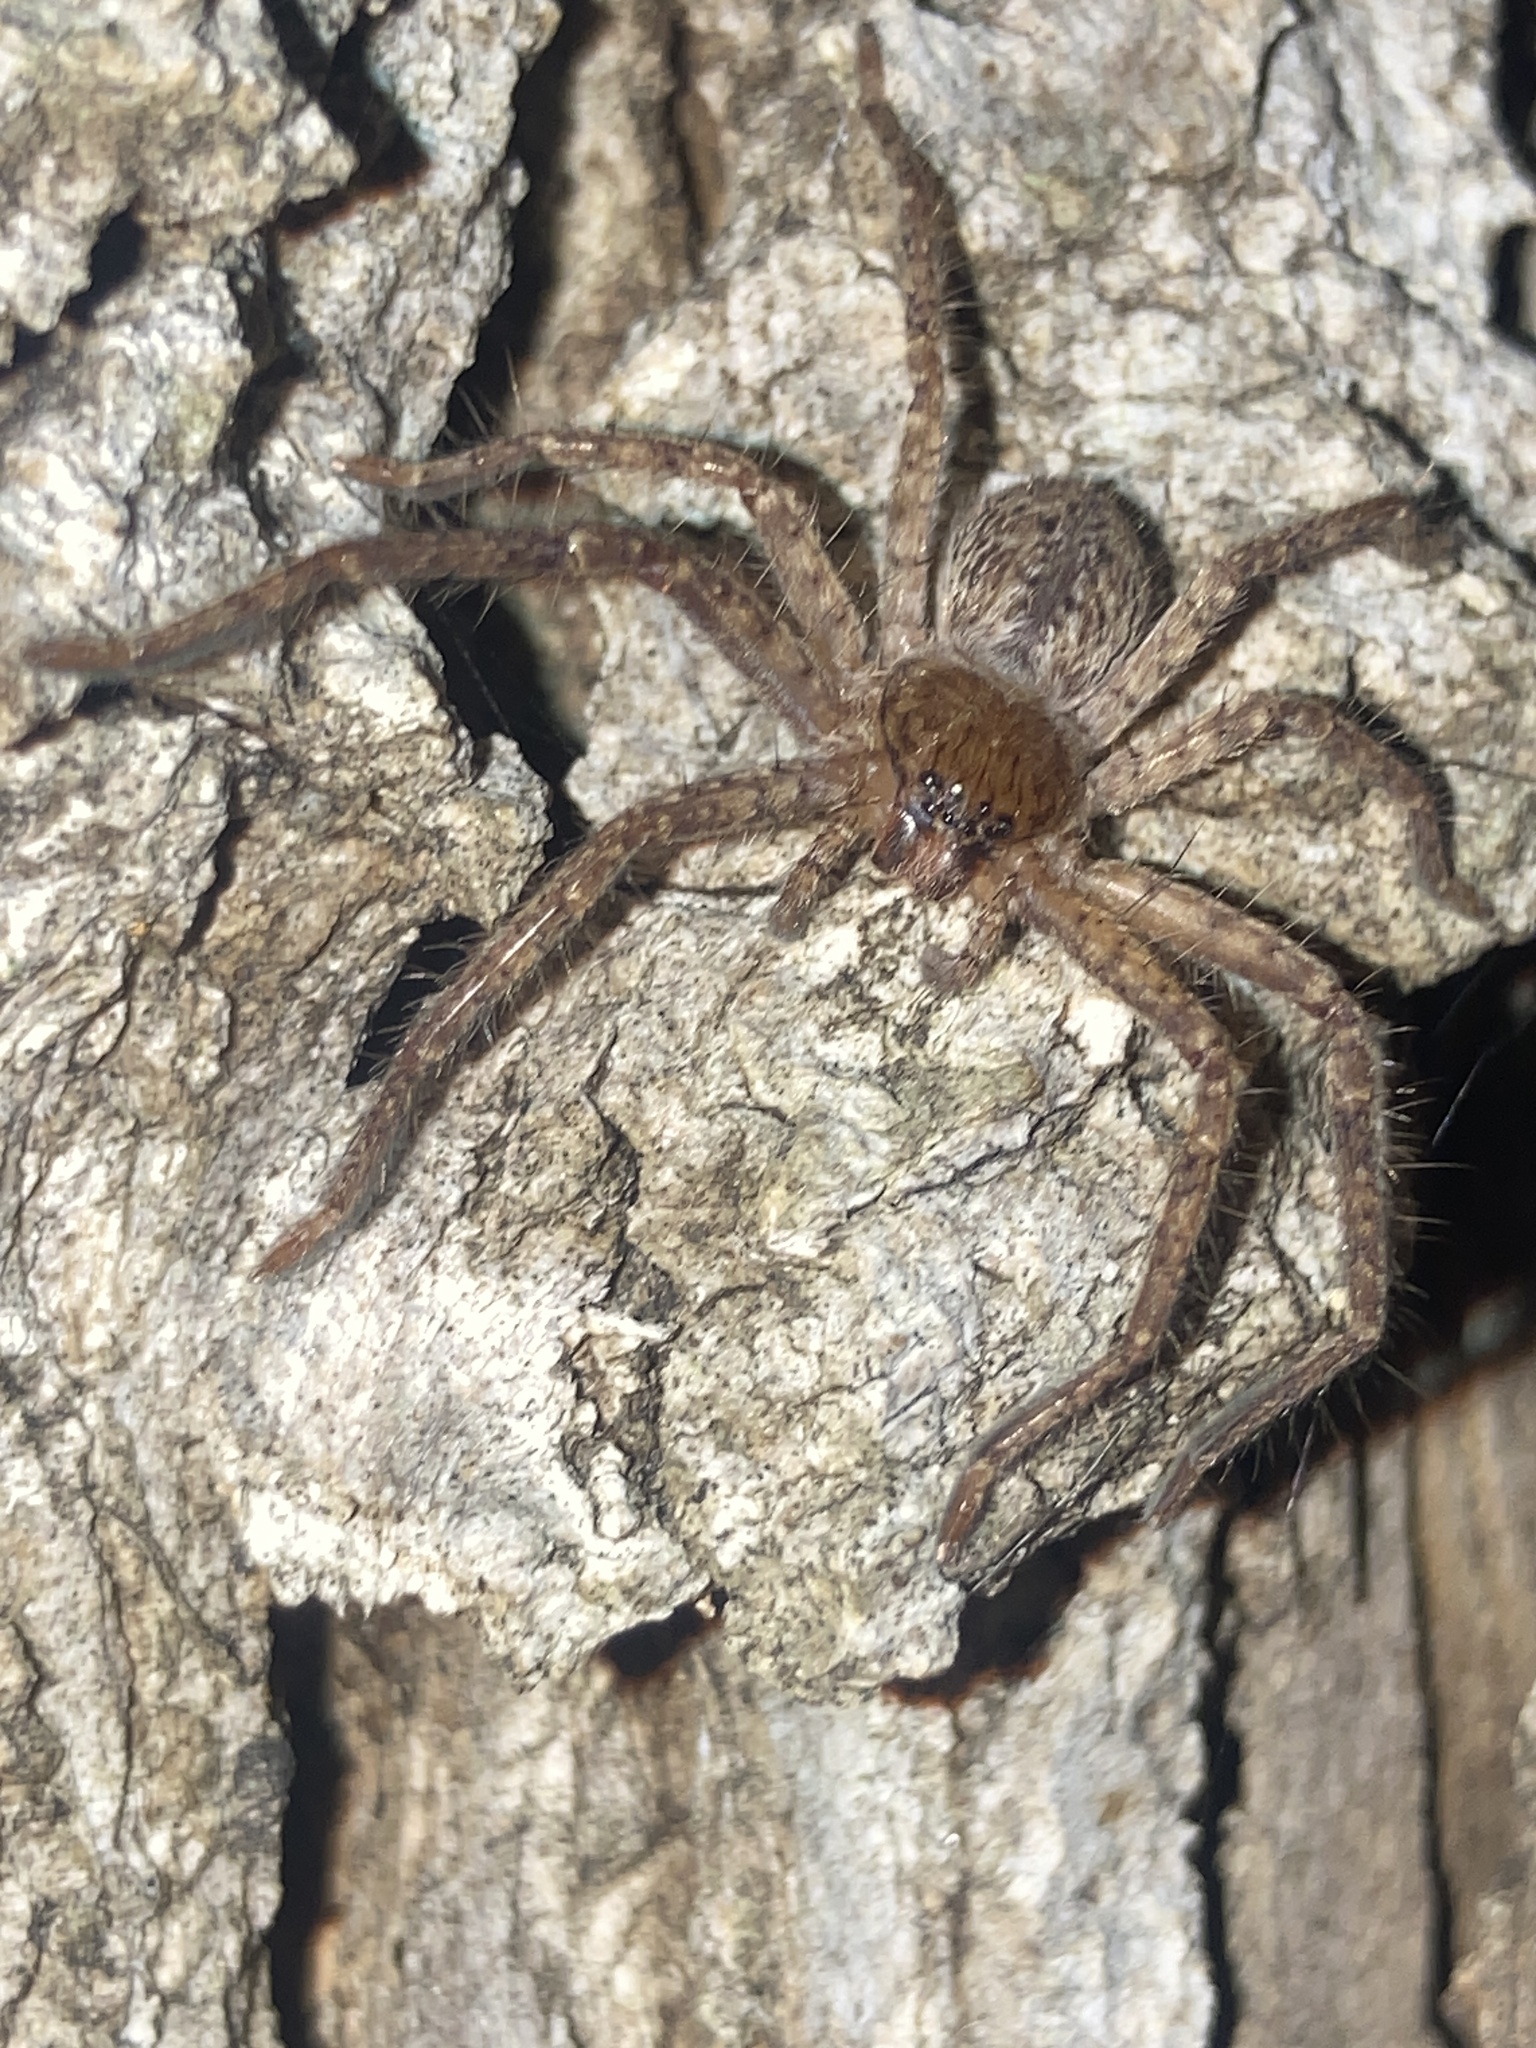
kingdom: Animalia
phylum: Arthropoda
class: Arachnida
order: Araneae
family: Sparassidae
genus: Isopeda
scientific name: Isopeda villosa
